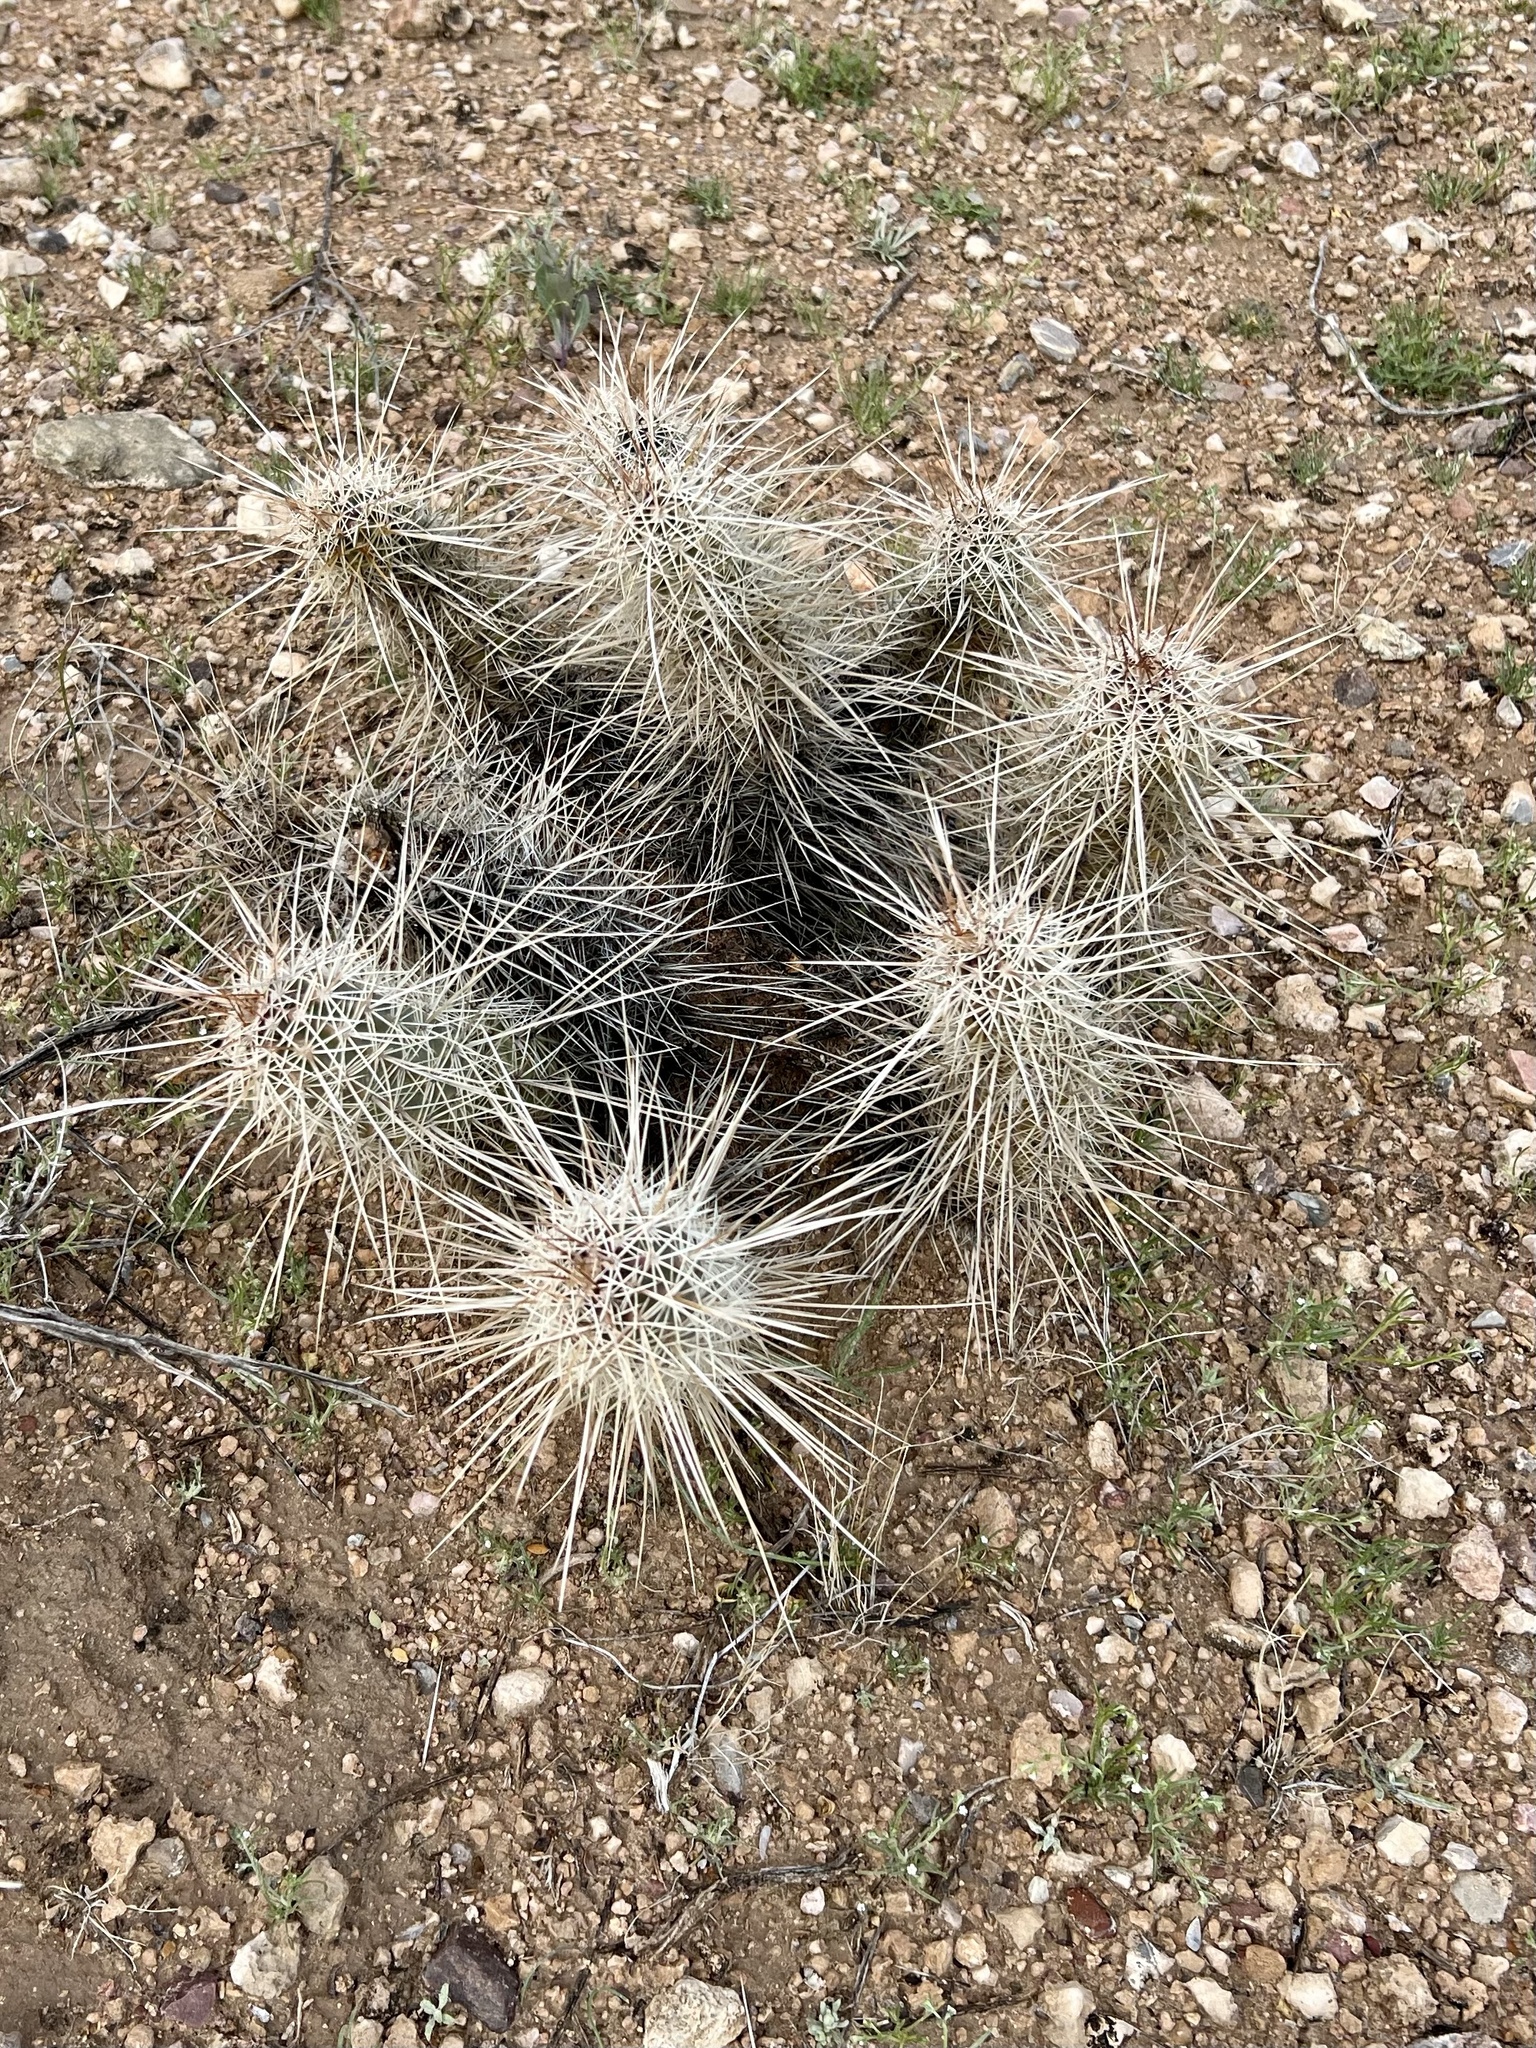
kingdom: Plantae
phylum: Tracheophyta
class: Magnoliopsida
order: Caryophyllales
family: Cactaceae
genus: Echinocereus
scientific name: Echinocereus fasciculatus
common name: Bundle hedgehog
